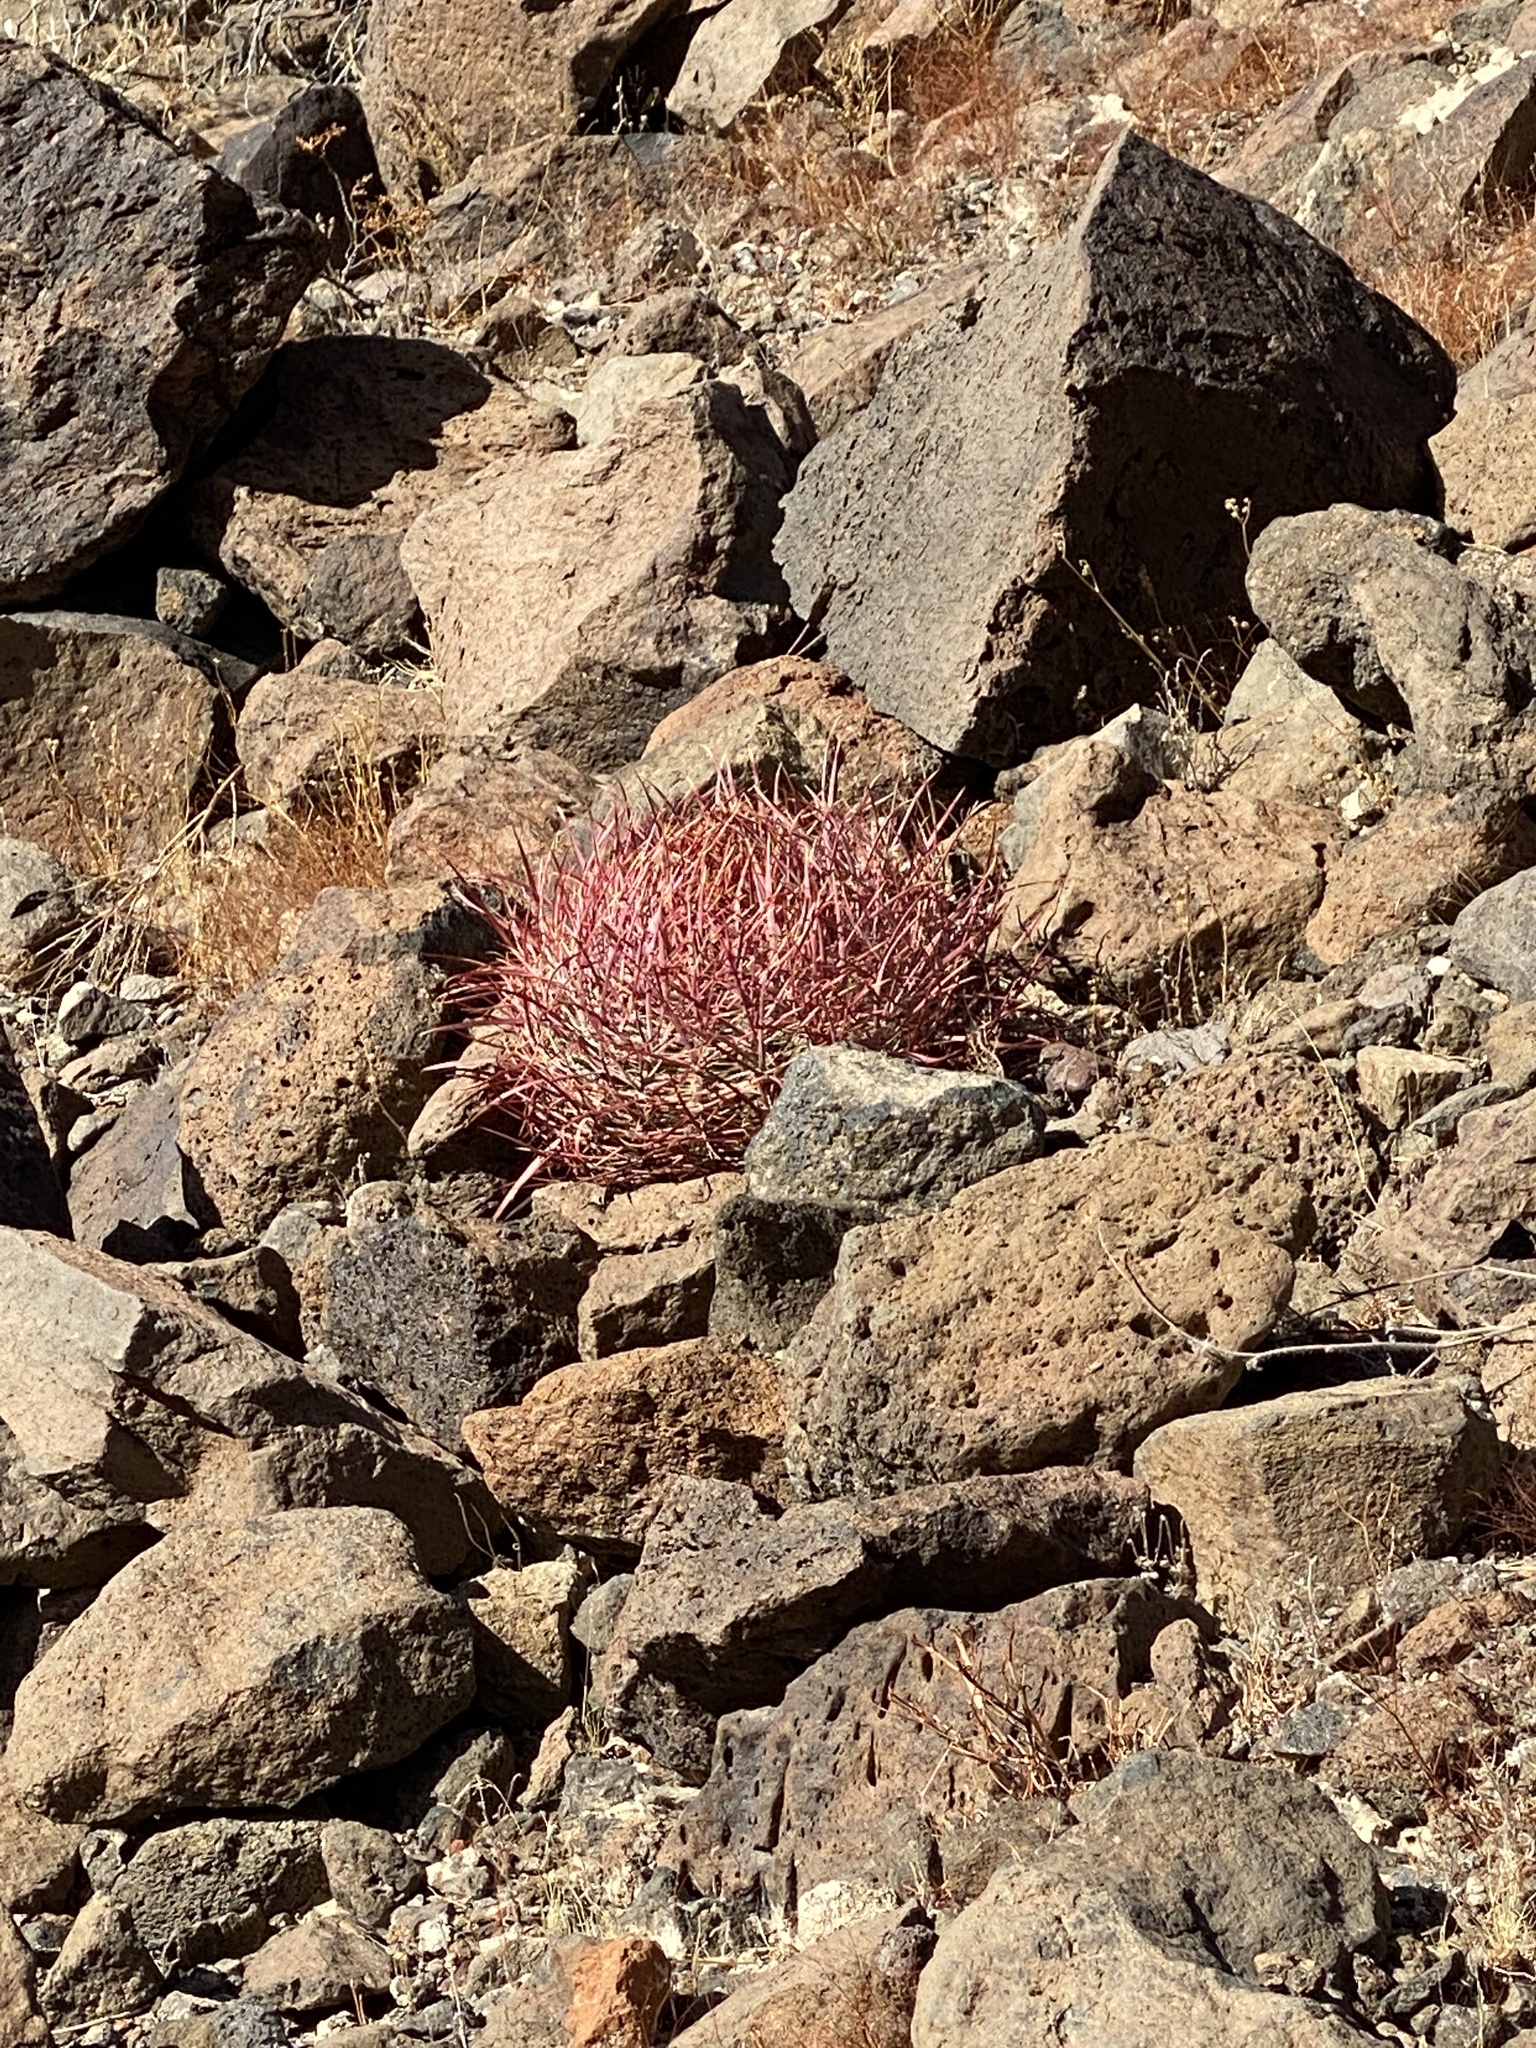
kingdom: Plantae
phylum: Tracheophyta
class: Magnoliopsida
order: Caryophyllales
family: Cactaceae
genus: Ferocactus
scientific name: Ferocactus cylindraceus
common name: California barrel cactus
